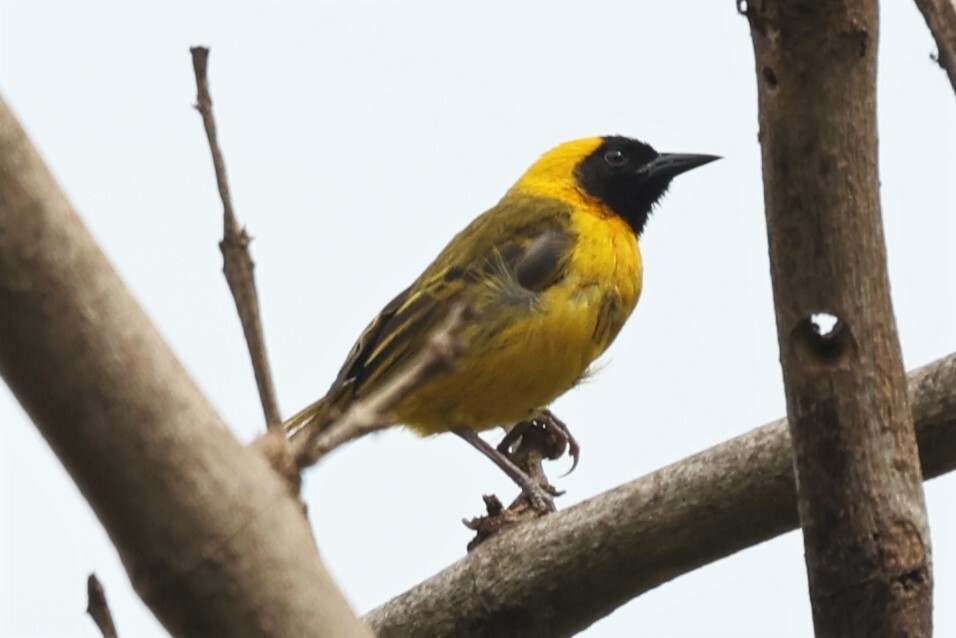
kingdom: Animalia
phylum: Chordata
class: Aves
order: Passeriformes
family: Ploceidae
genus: Ploceus
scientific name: Ploceus pelzelni
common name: Slender-billed weaver
